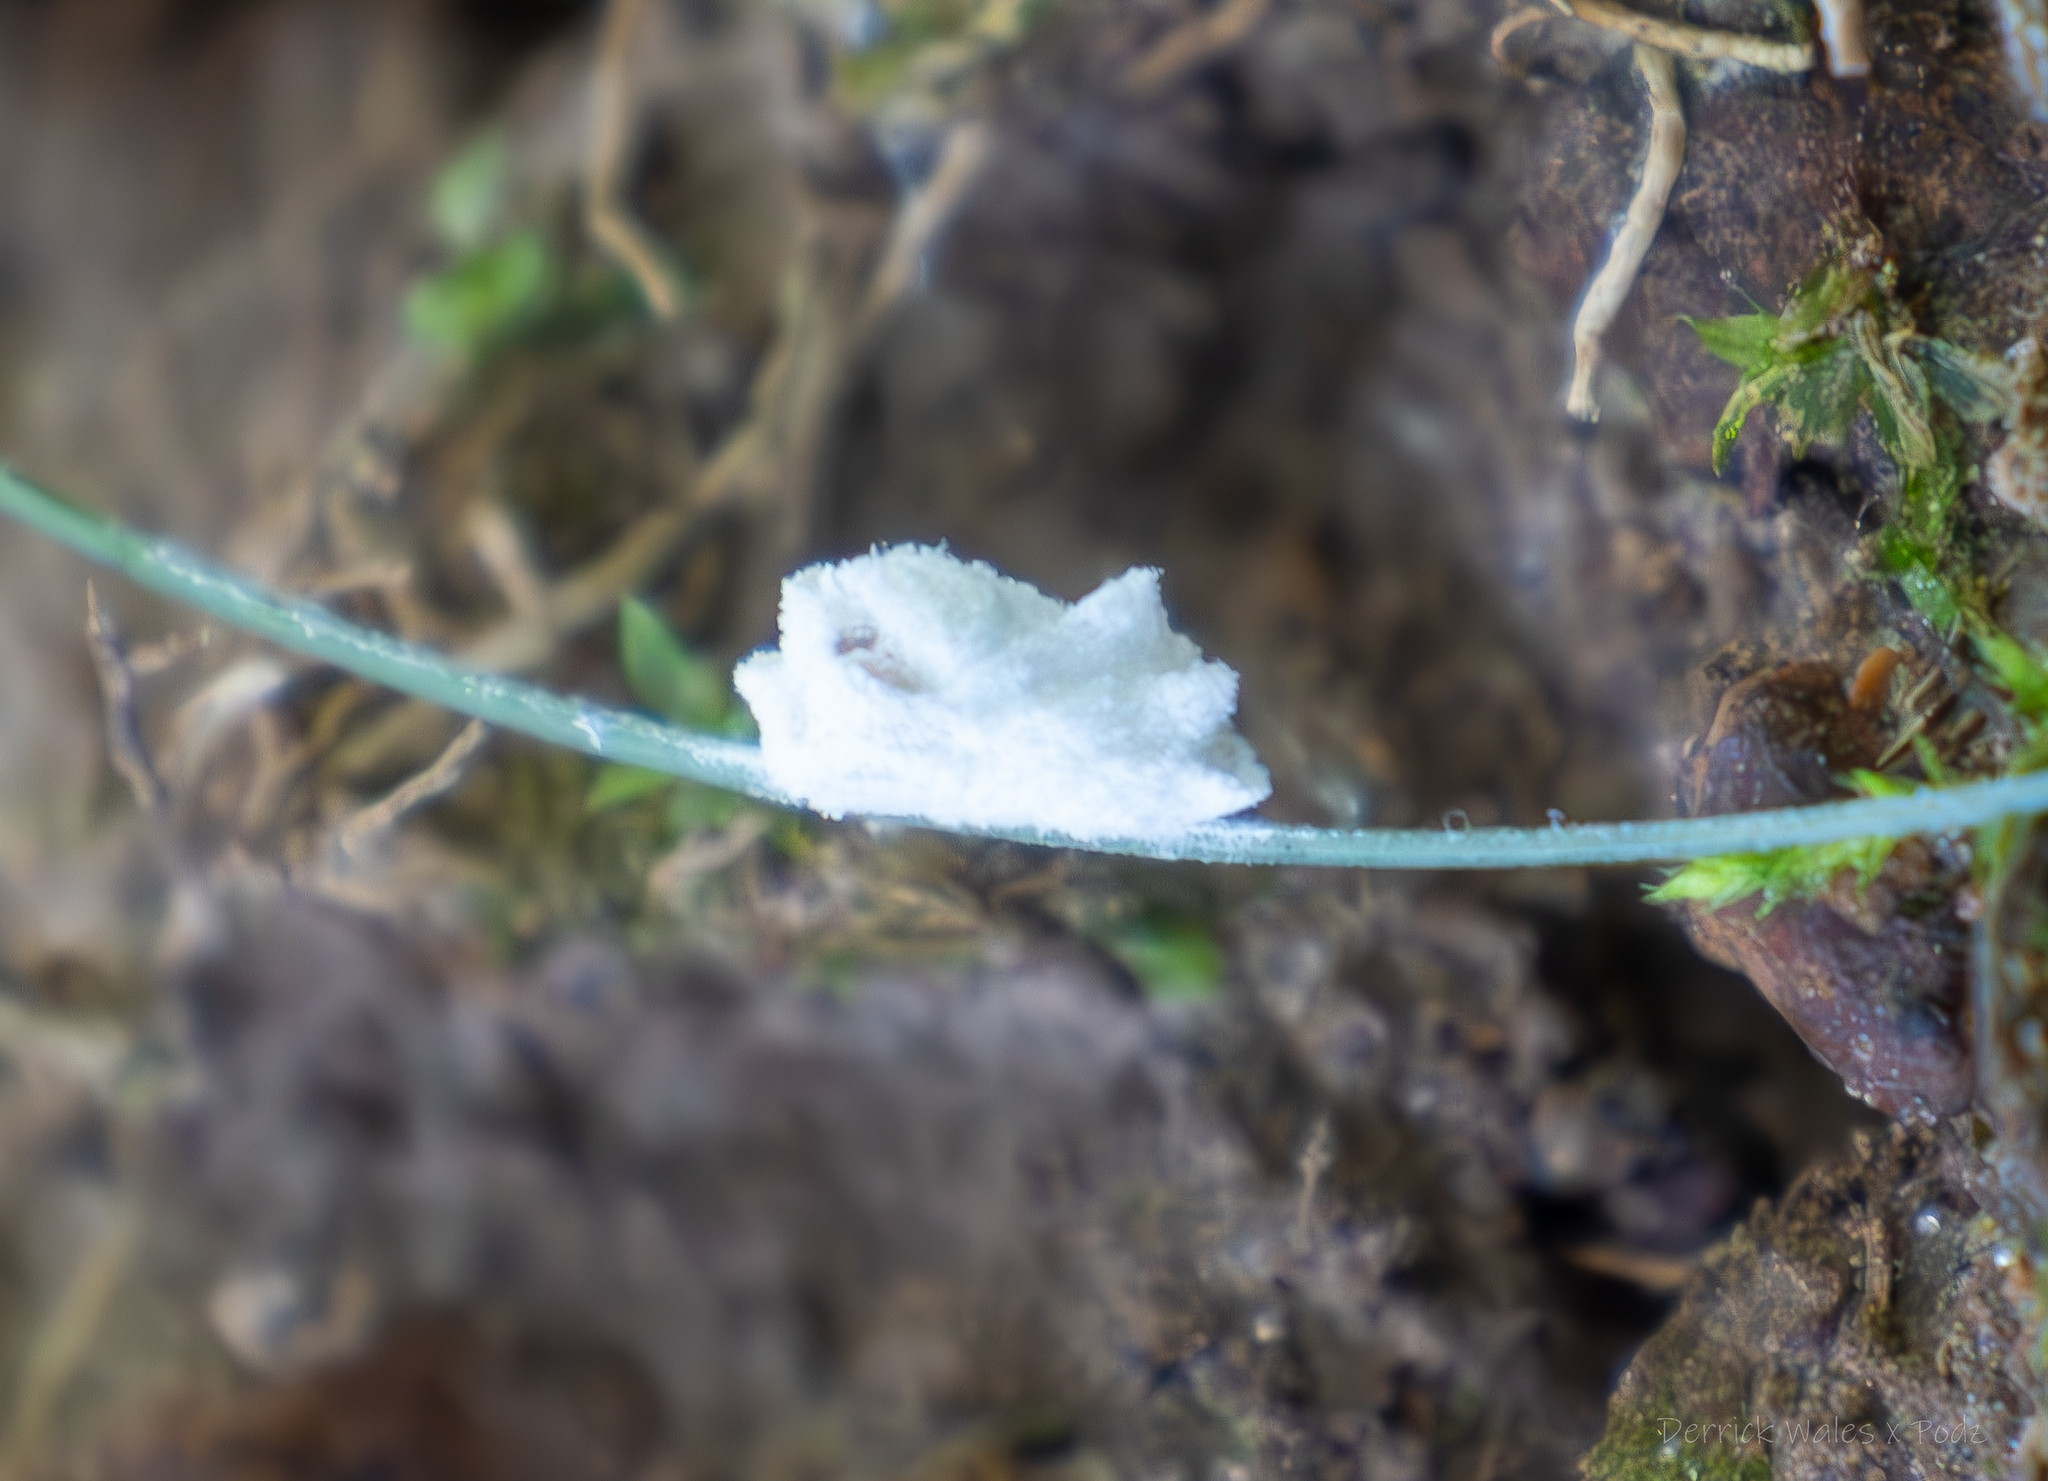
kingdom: Animalia
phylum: Arthropoda
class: Insecta
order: Lepidoptera
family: Epipyropidae
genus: Fulgoraecia
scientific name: Fulgoraecia exigua
